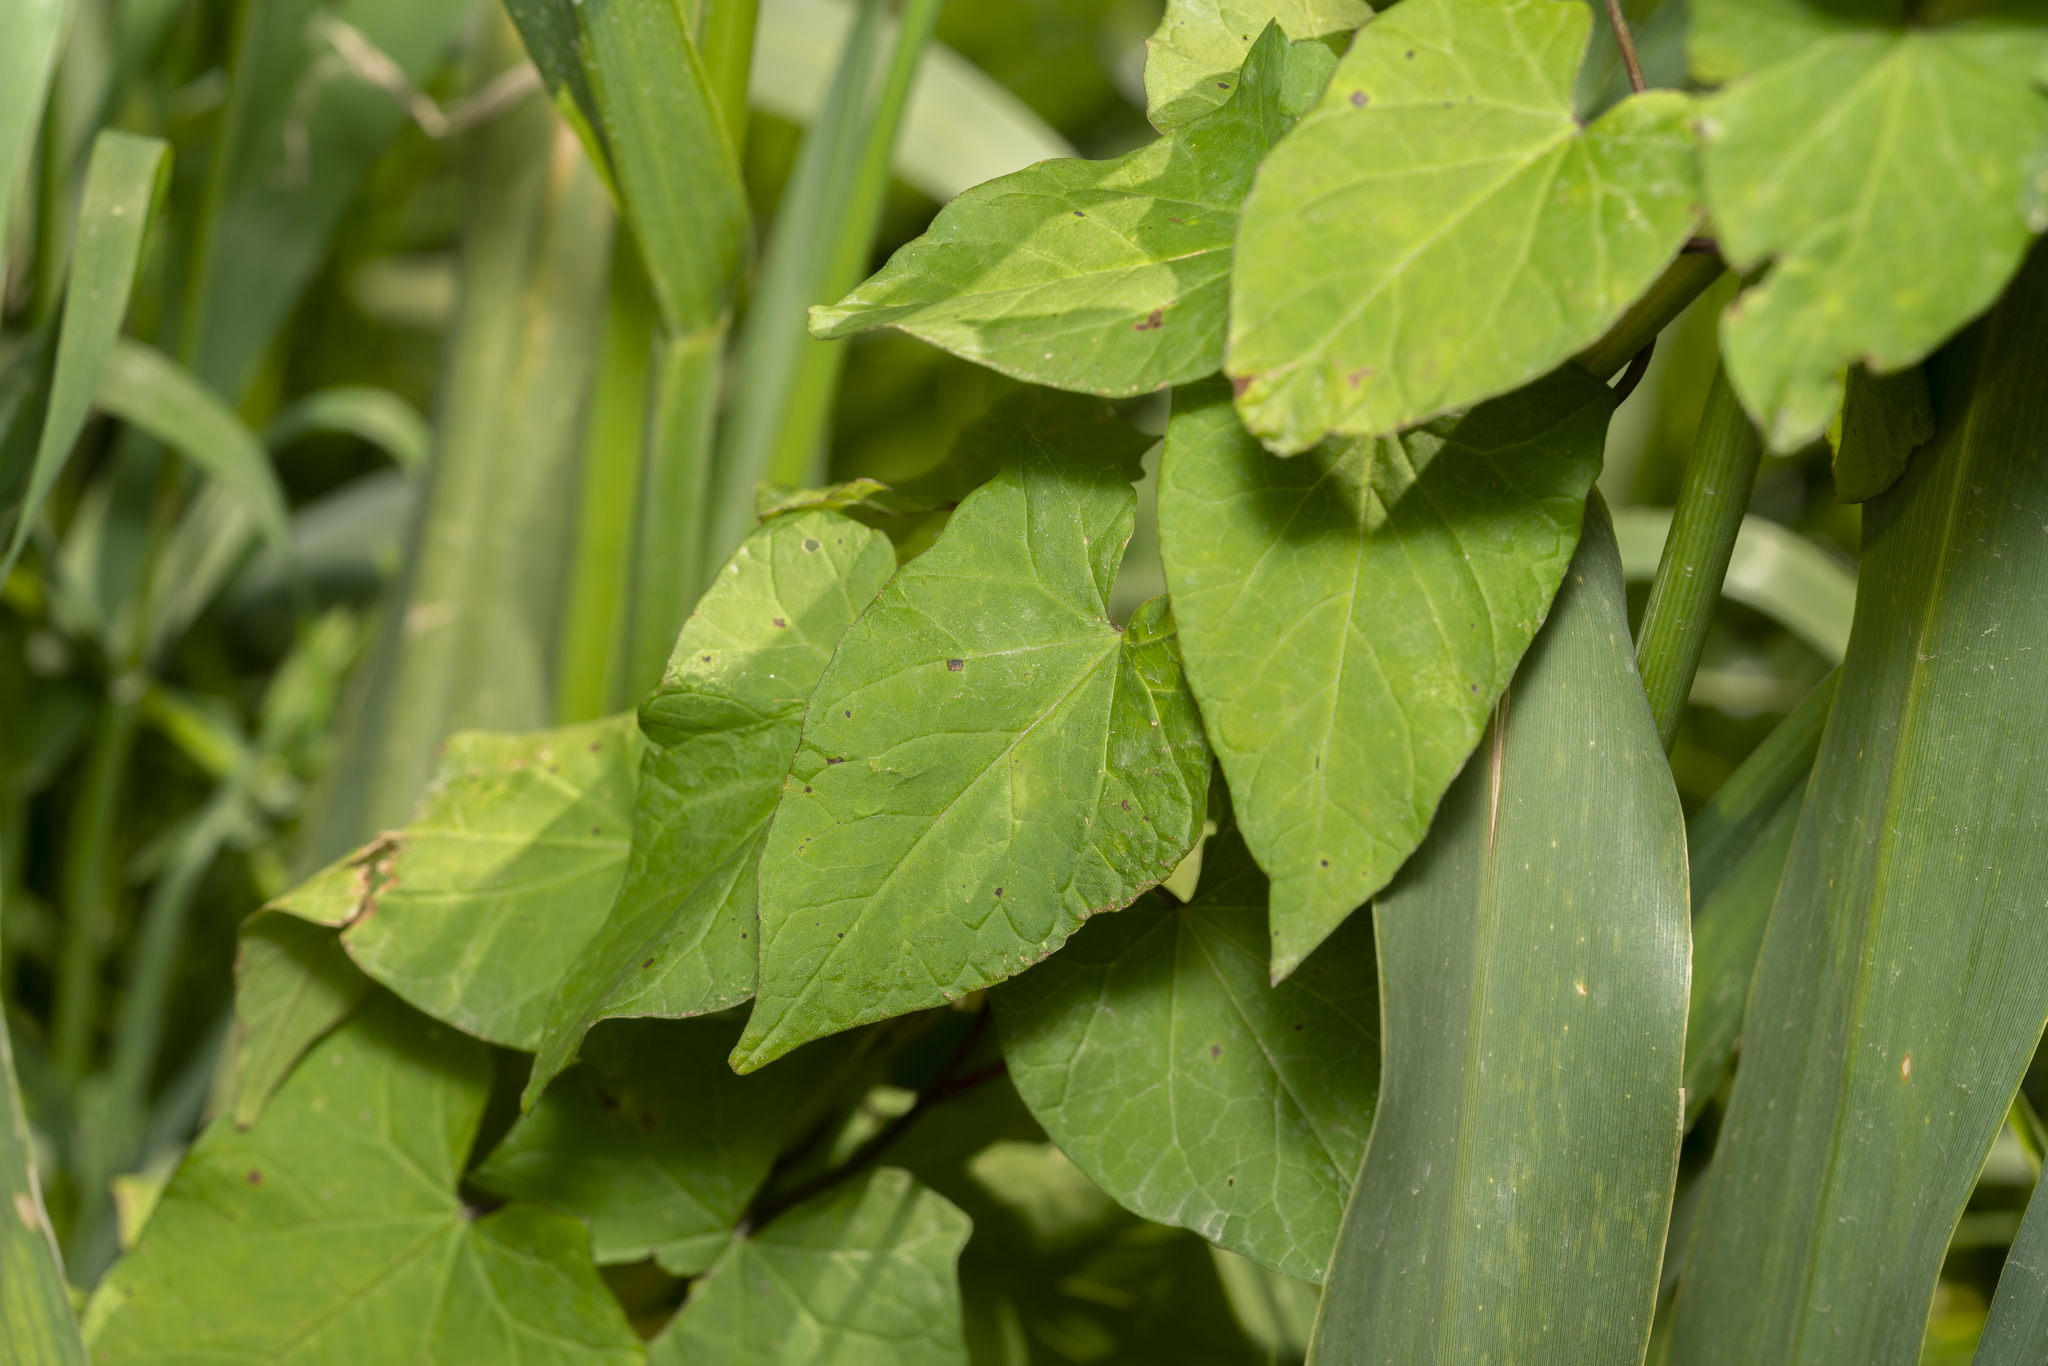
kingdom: Plantae
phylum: Tracheophyta
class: Magnoliopsida
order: Solanales
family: Convolvulaceae
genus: Calystegia
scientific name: Calystegia
